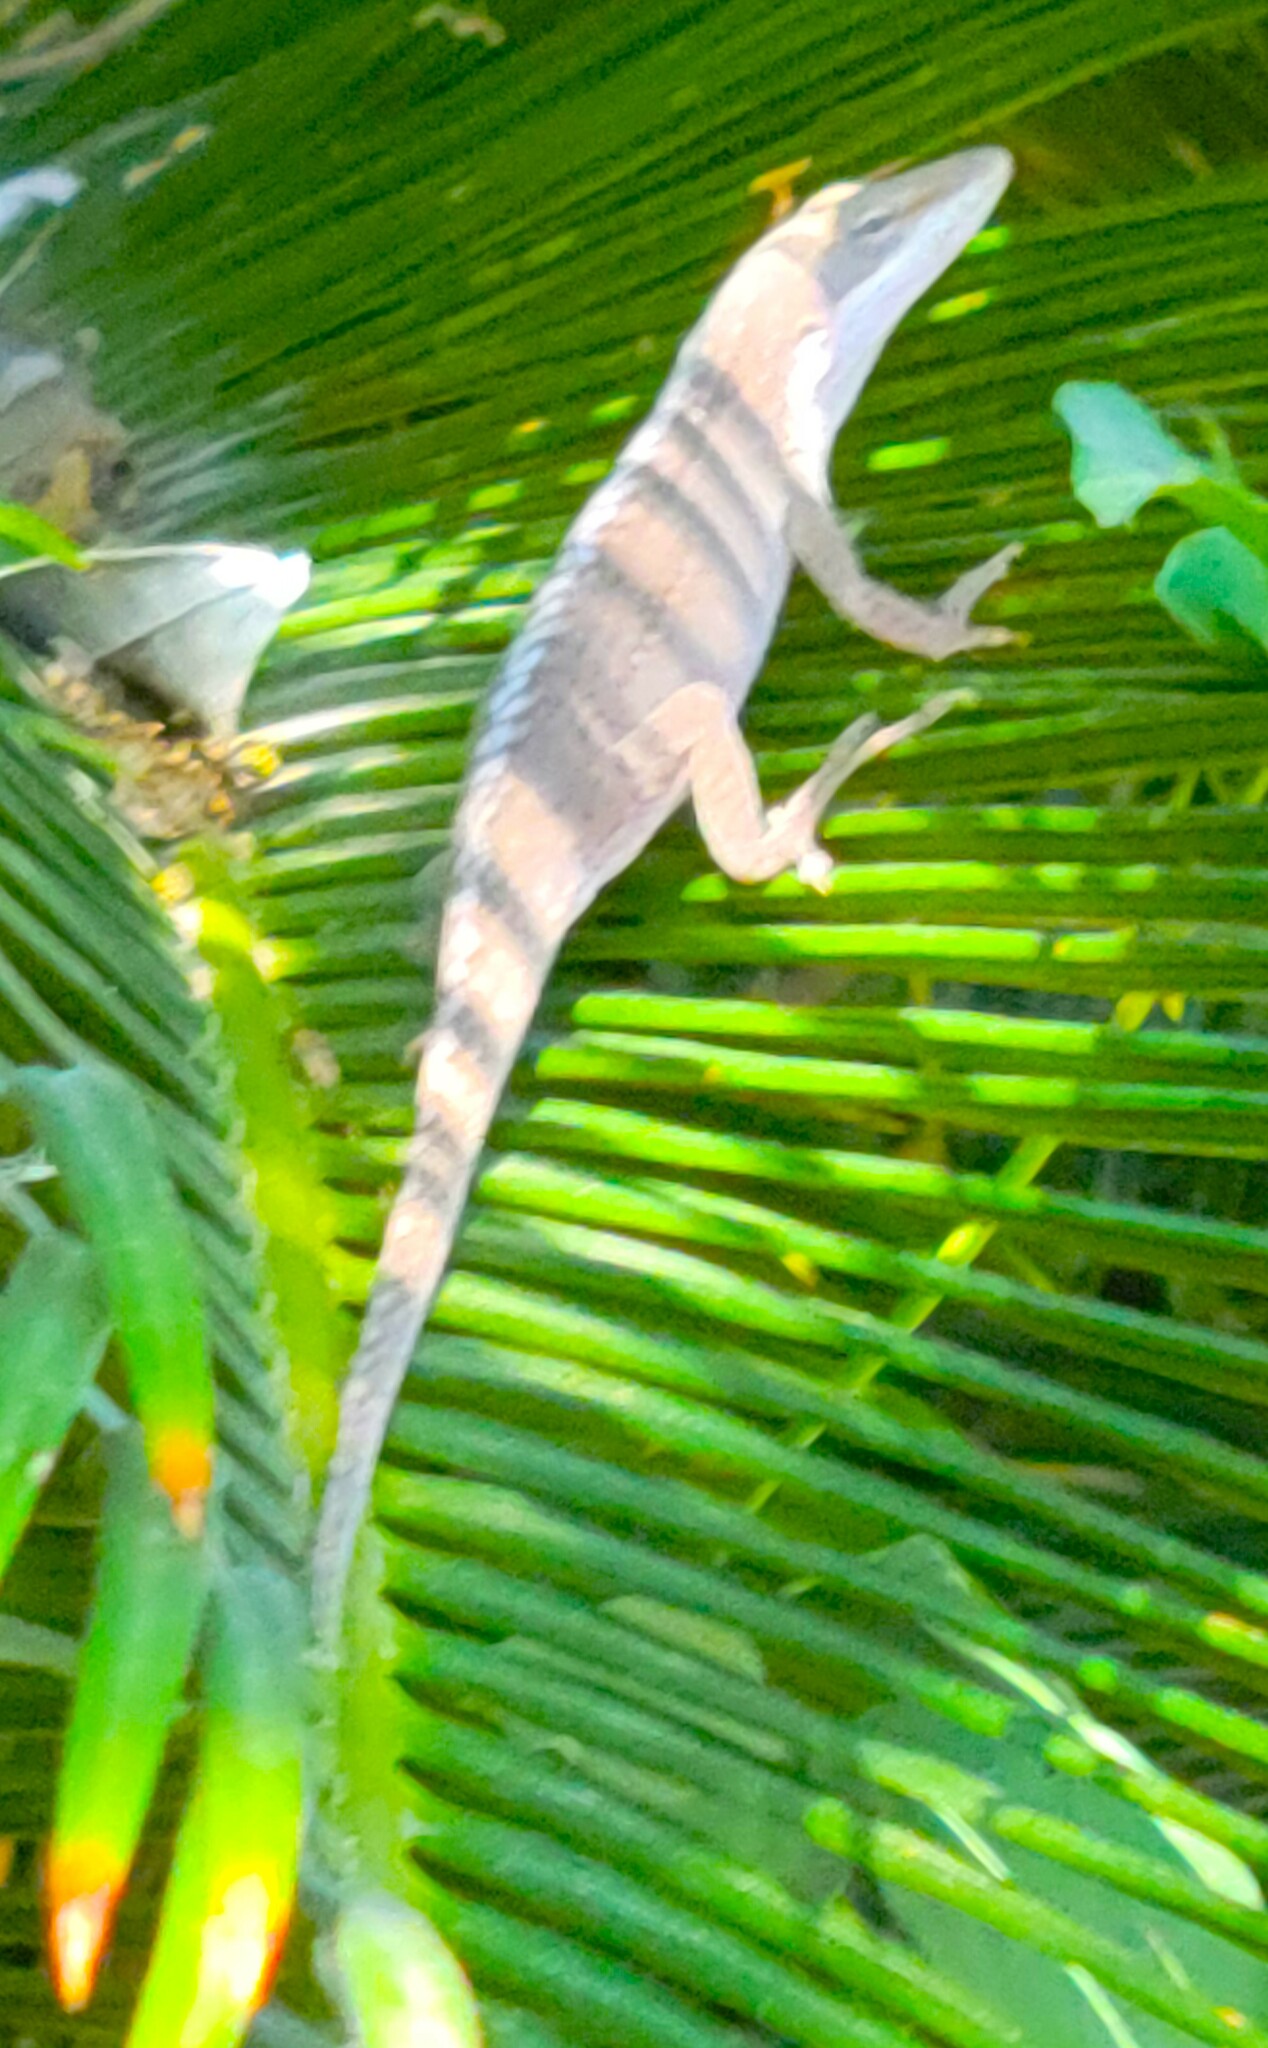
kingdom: Animalia
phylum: Chordata
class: Squamata
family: Dactyloidae
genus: Anolis
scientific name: Anolis carolinensis
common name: Green anole
